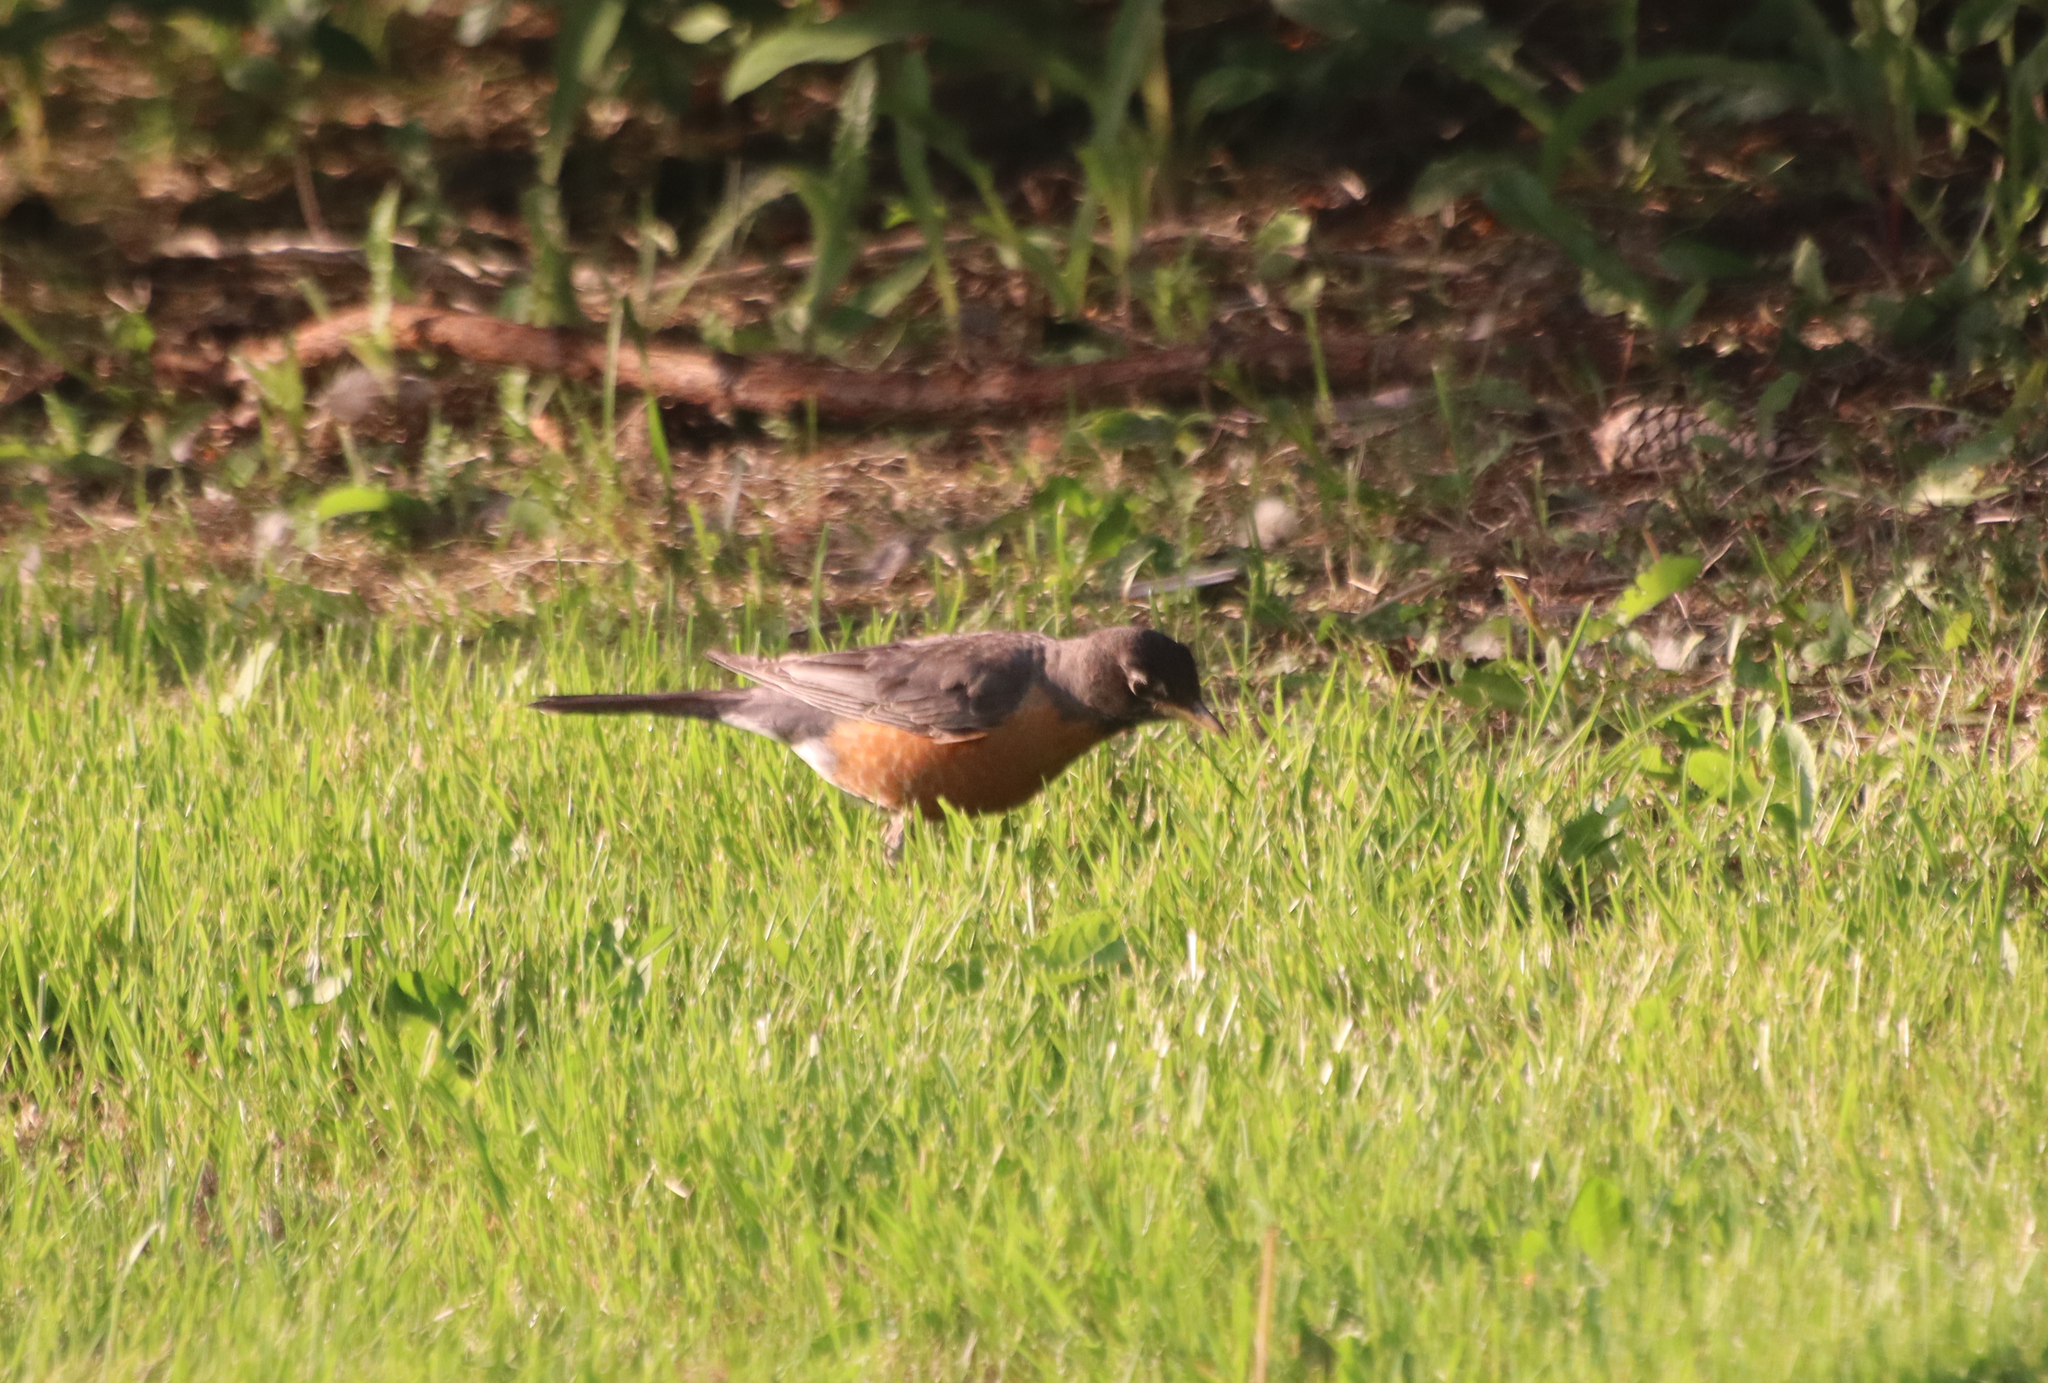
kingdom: Animalia
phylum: Chordata
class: Aves
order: Passeriformes
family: Turdidae
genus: Turdus
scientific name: Turdus migratorius
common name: American robin
